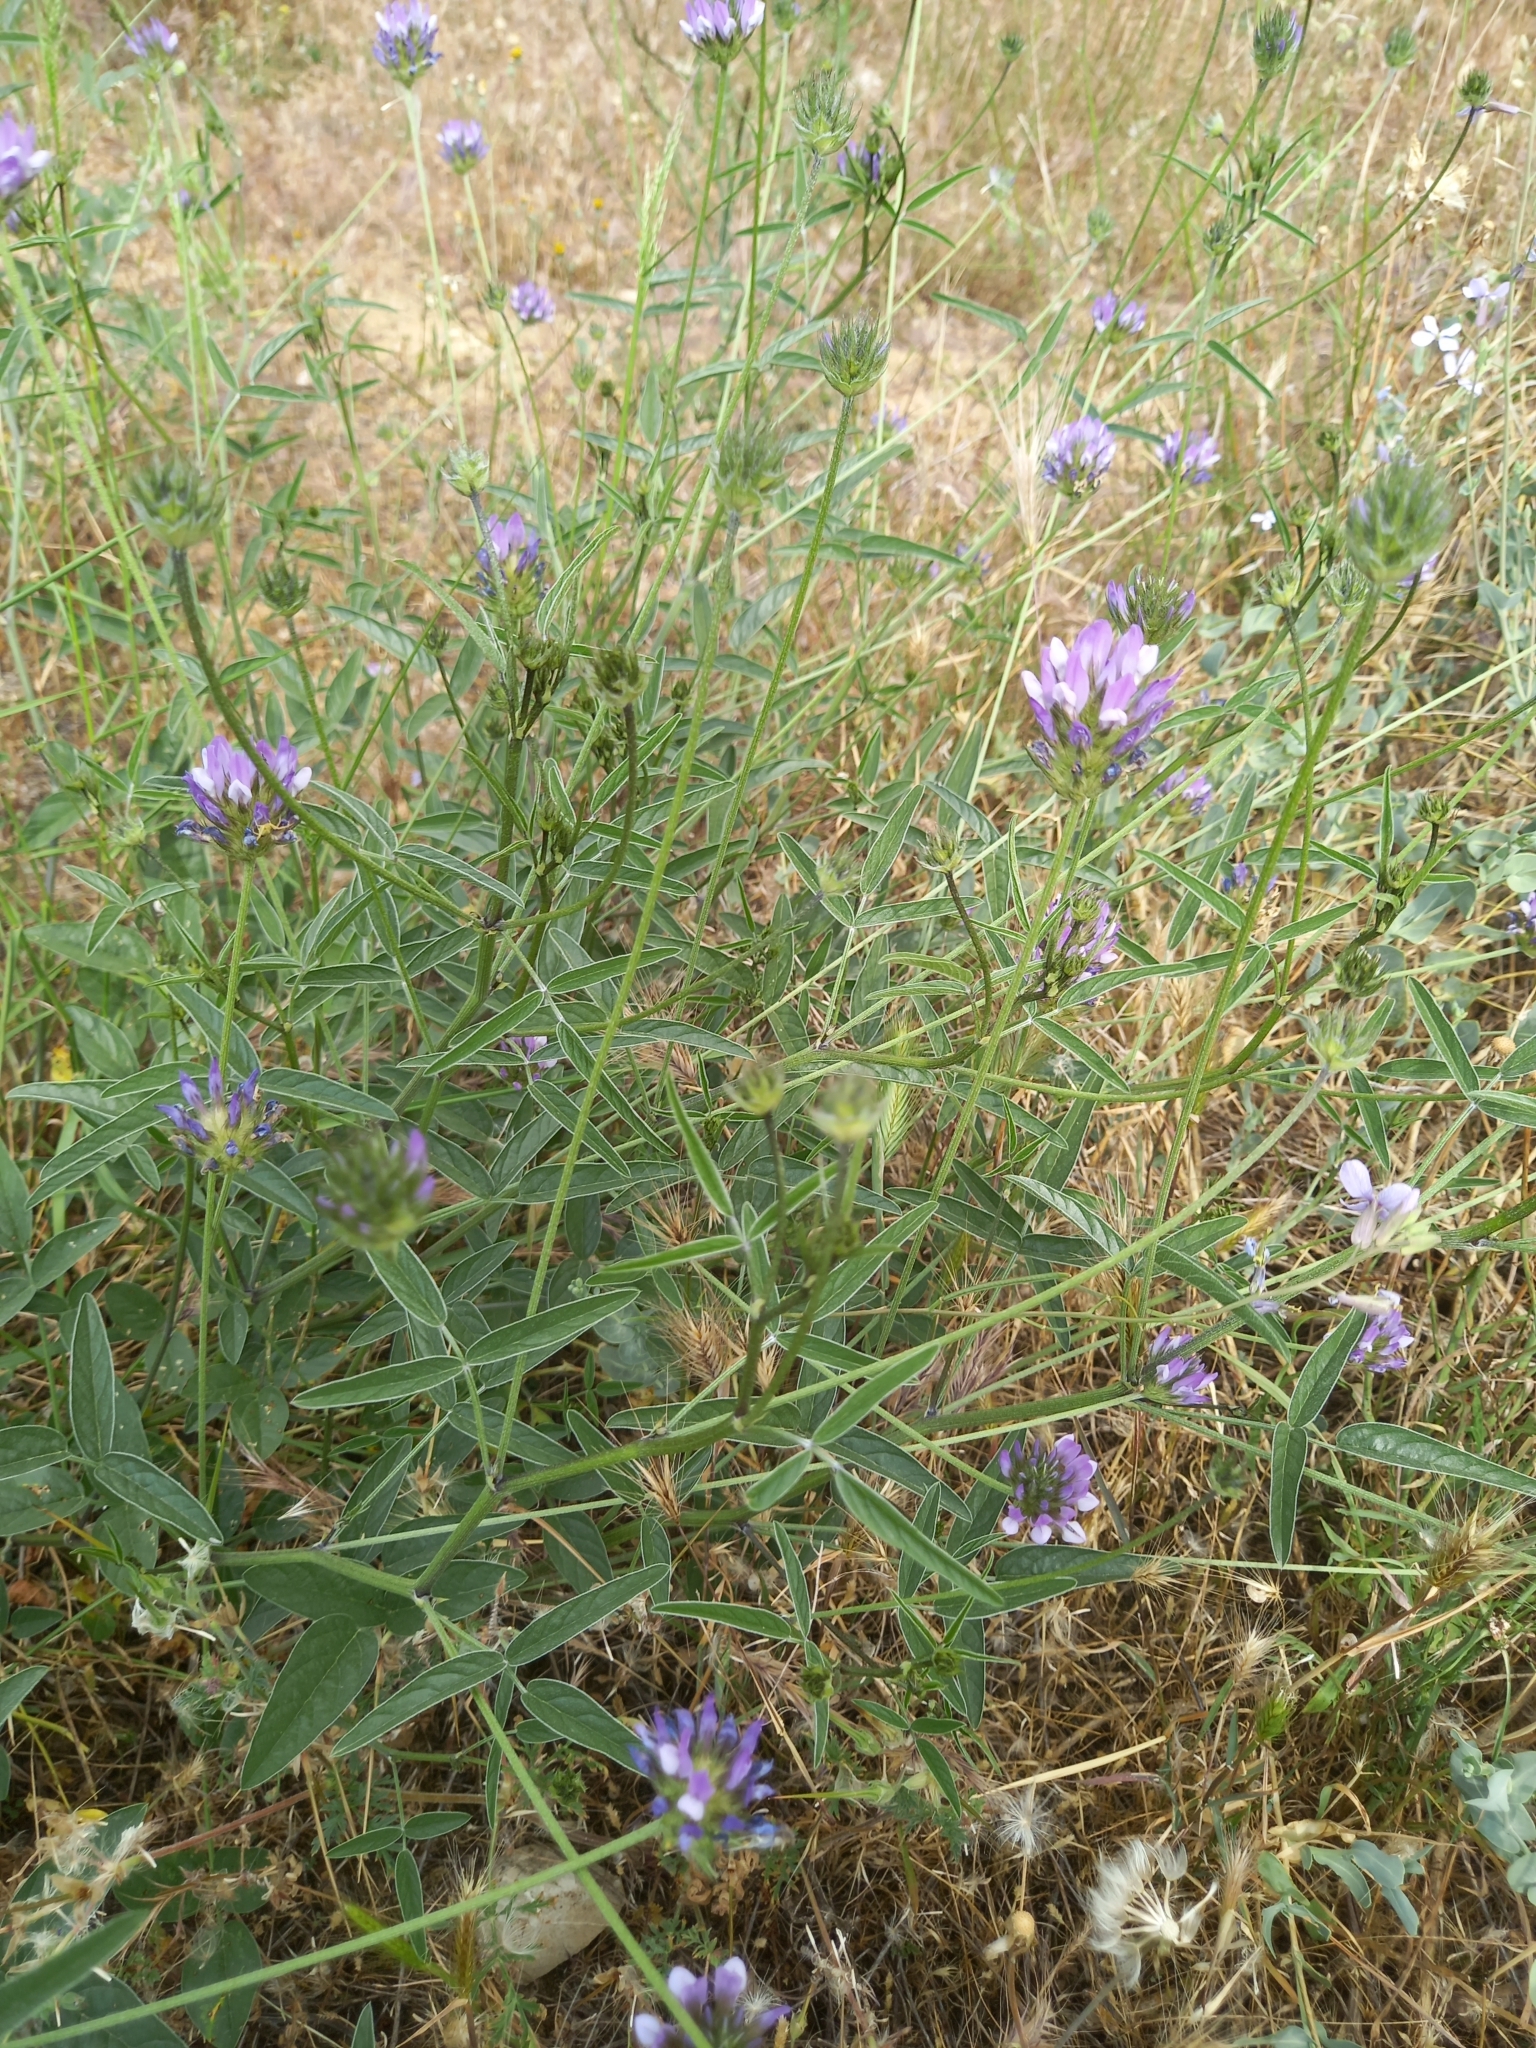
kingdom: Plantae
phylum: Tracheophyta
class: Magnoliopsida
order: Fabales
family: Fabaceae
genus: Bituminaria
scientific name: Bituminaria bituminosa
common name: Arabian pea
